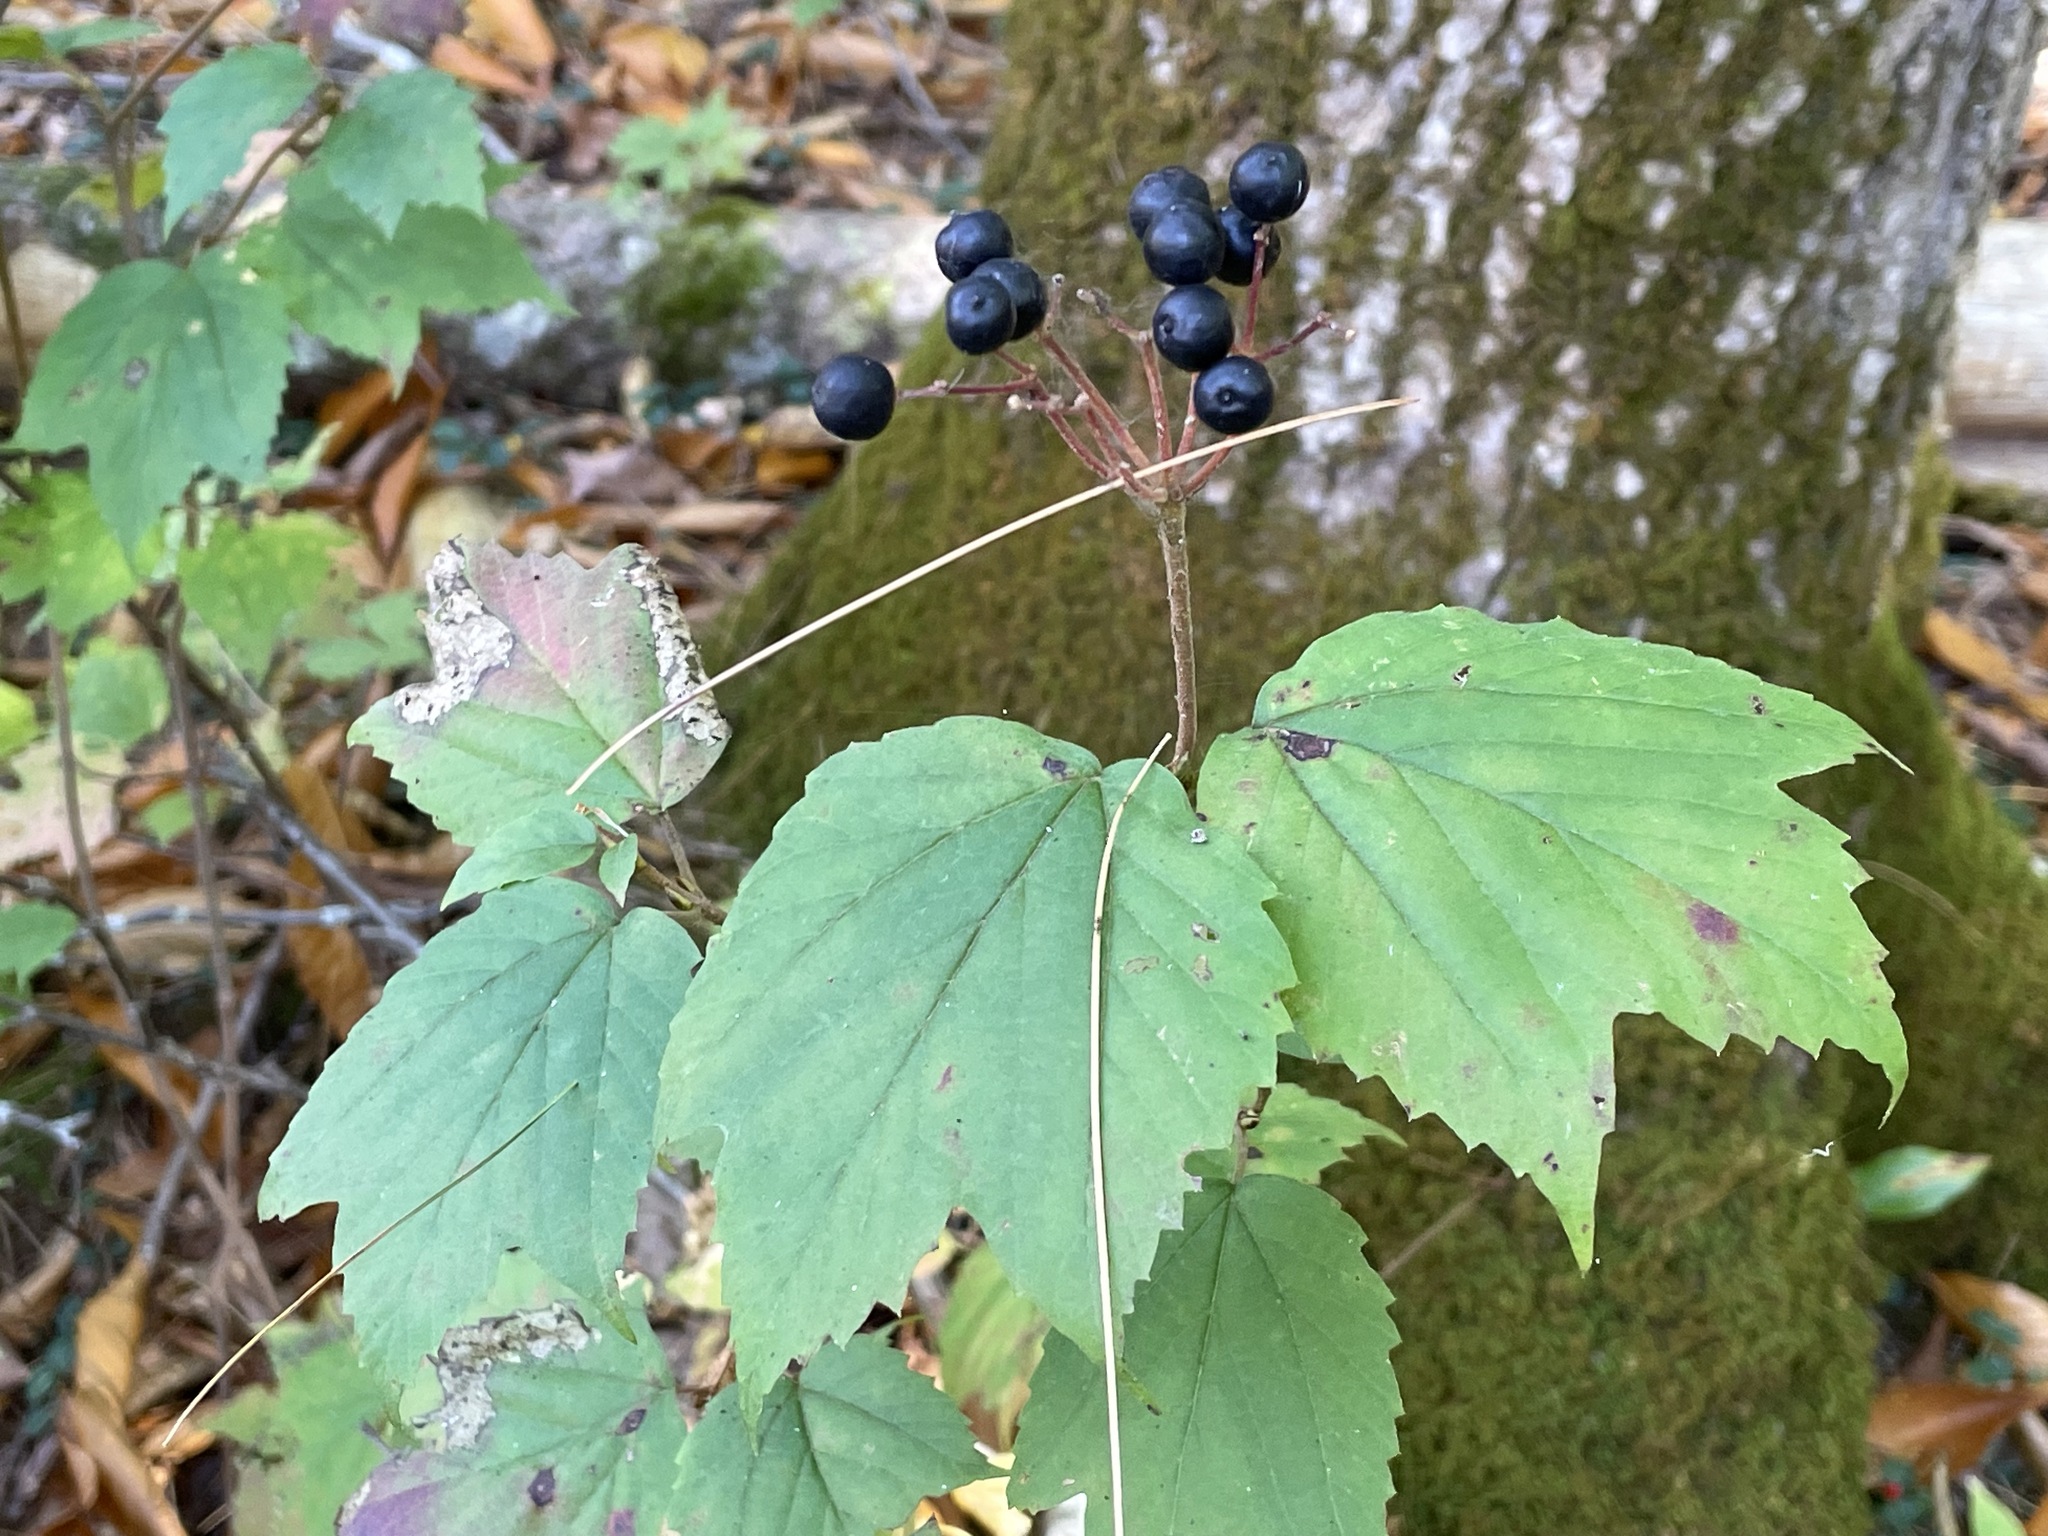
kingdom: Plantae
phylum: Tracheophyta
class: Magnoliopsida
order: Dipsacales
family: Viburnaceae
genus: Viburnum
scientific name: Viburnum acerifolium
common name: Dockmackie
